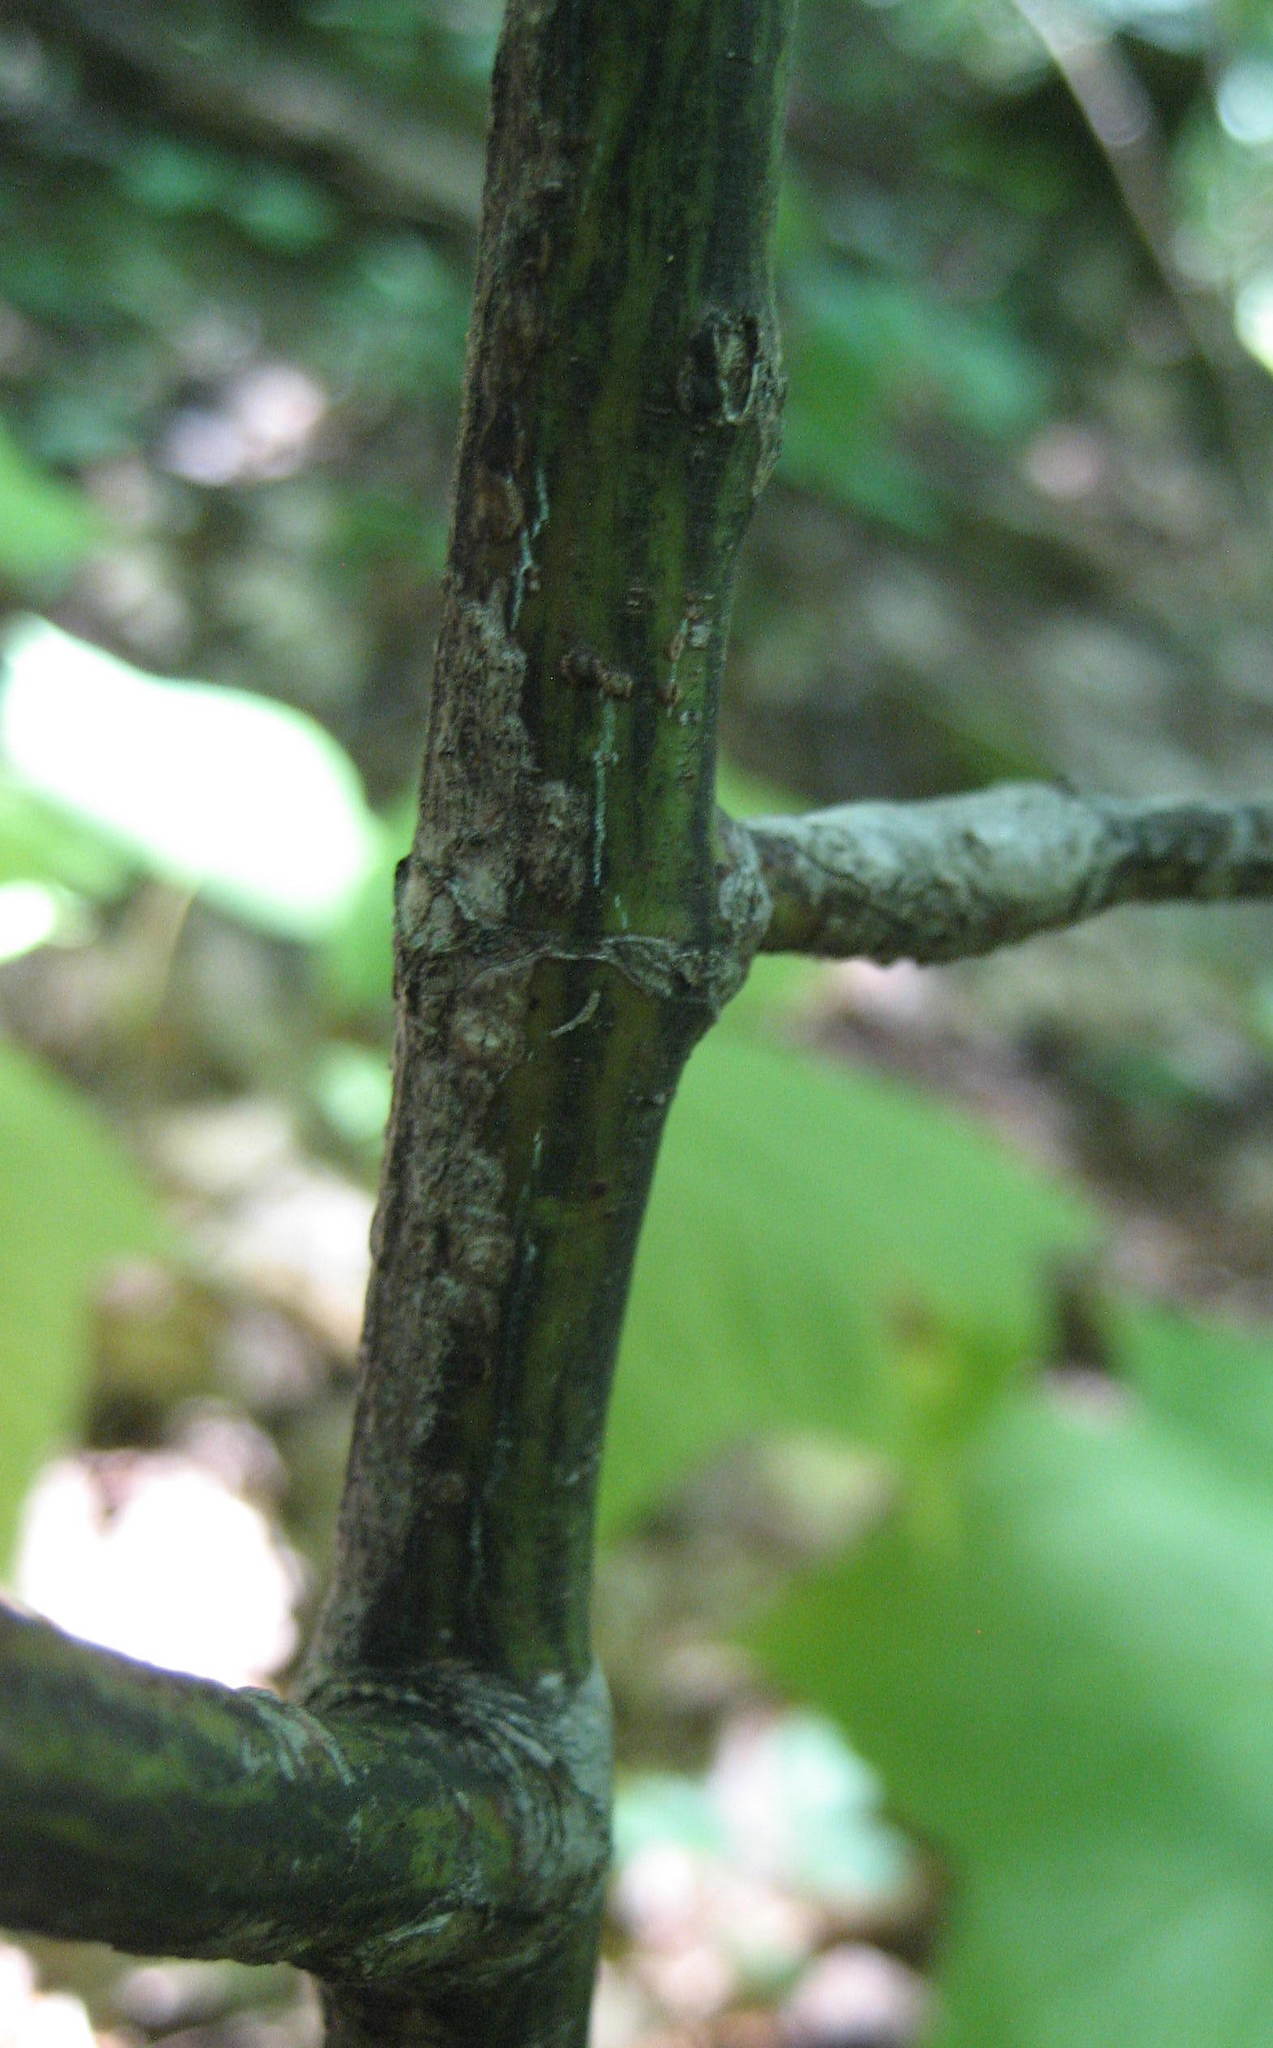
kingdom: Plantae
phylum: Tracheophyta
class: Magnoliopsida
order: Sapindales
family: Sapindaceae
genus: Acer
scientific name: Acer pensylvanicum
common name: Moosewood
